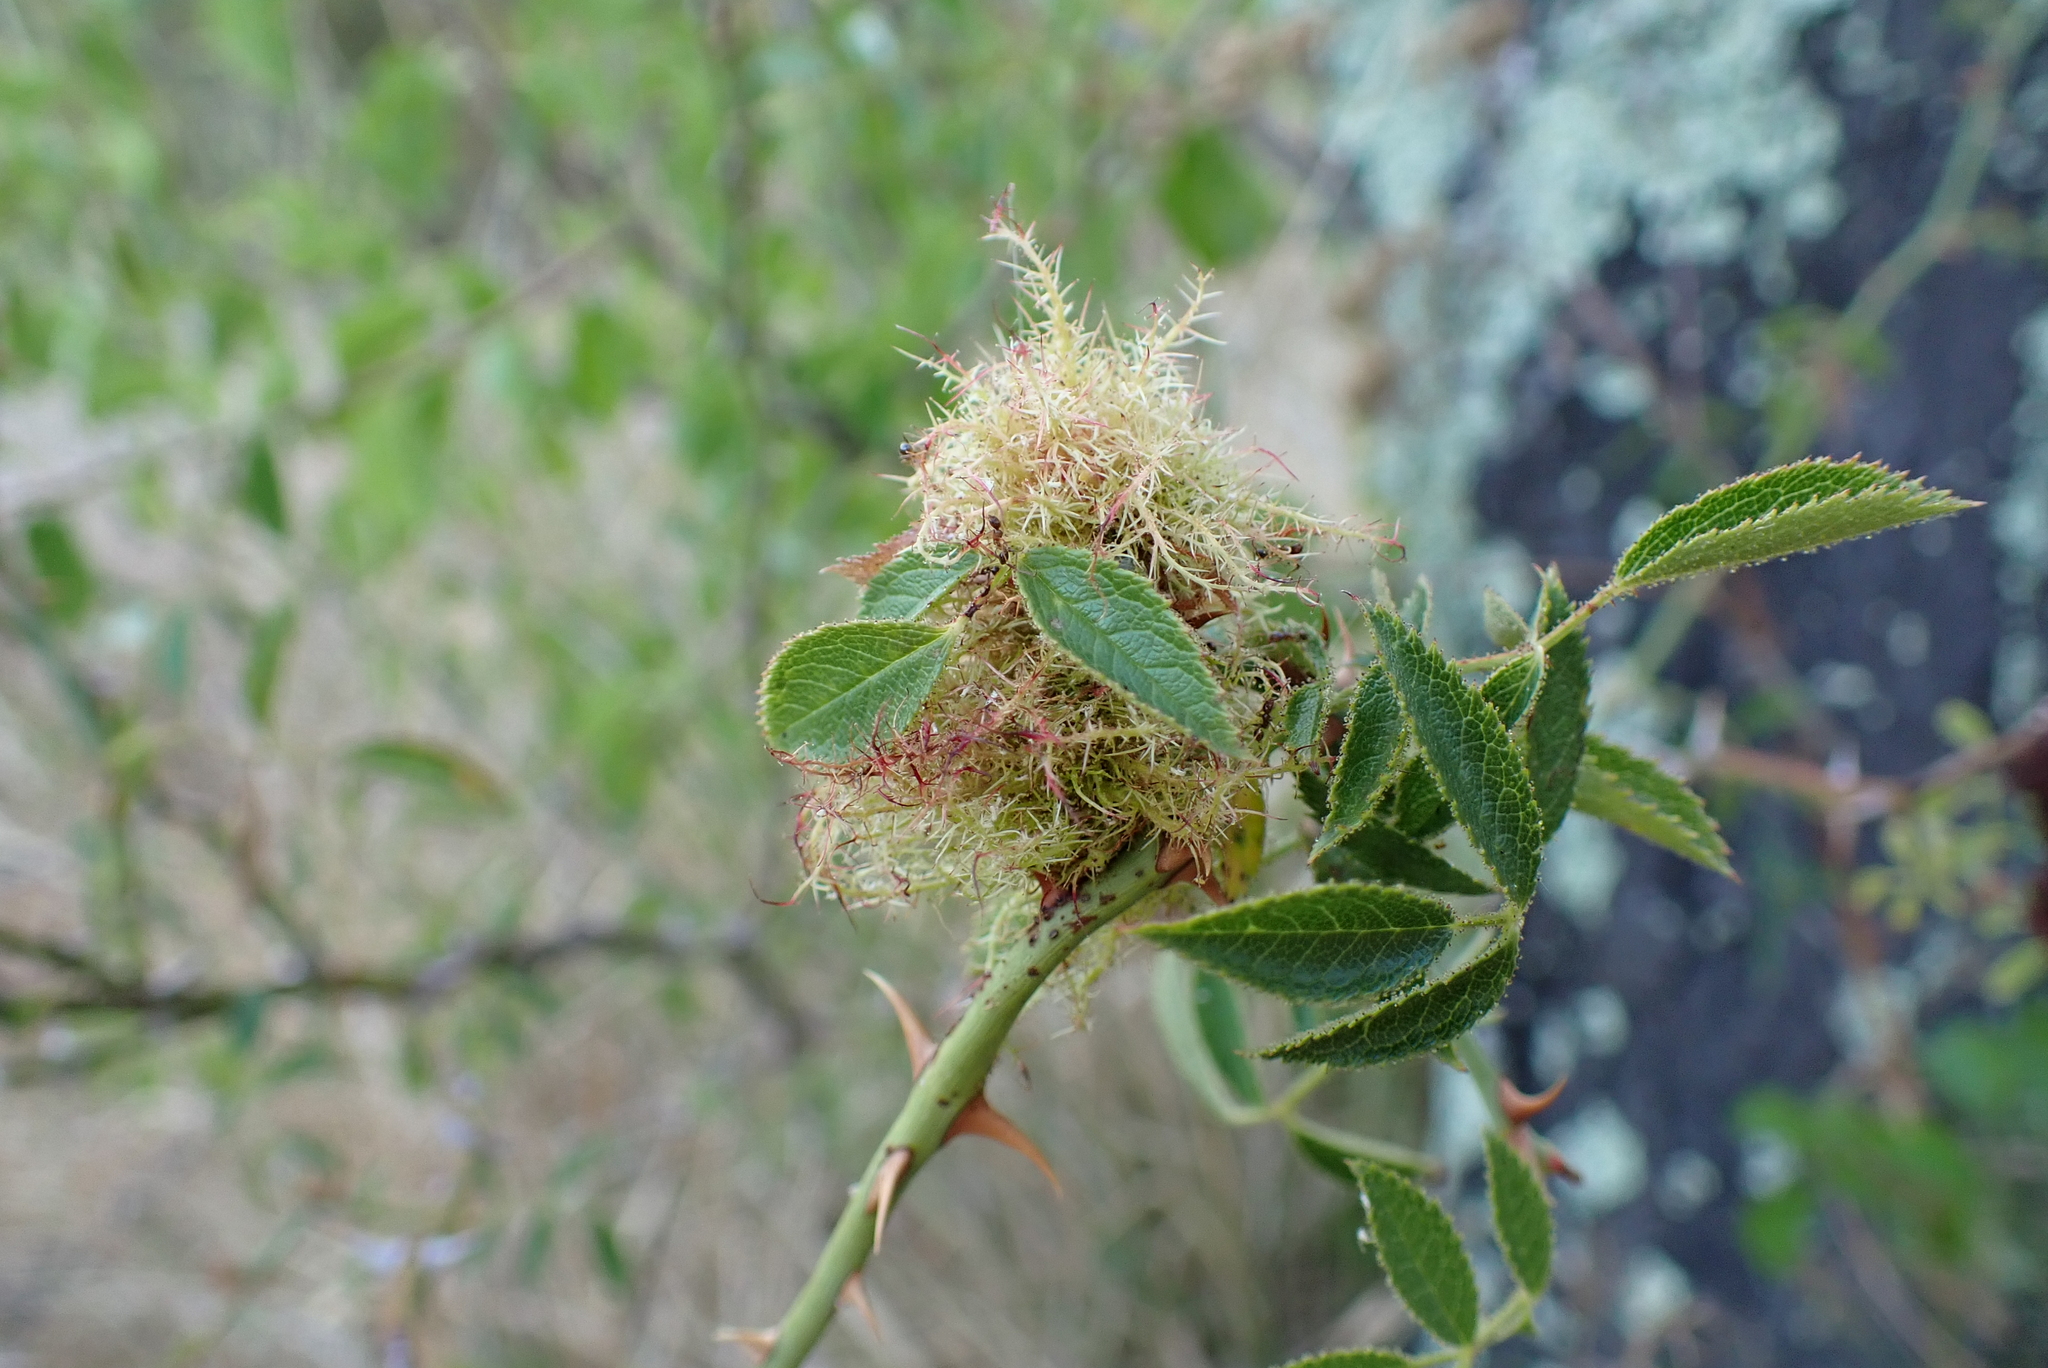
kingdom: Animalia
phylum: Arthropoda
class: Insecta
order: Hymenoptera
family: Cynipidae
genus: Diplolepis
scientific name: Diplolepis rosae
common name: Bedeguar gall
